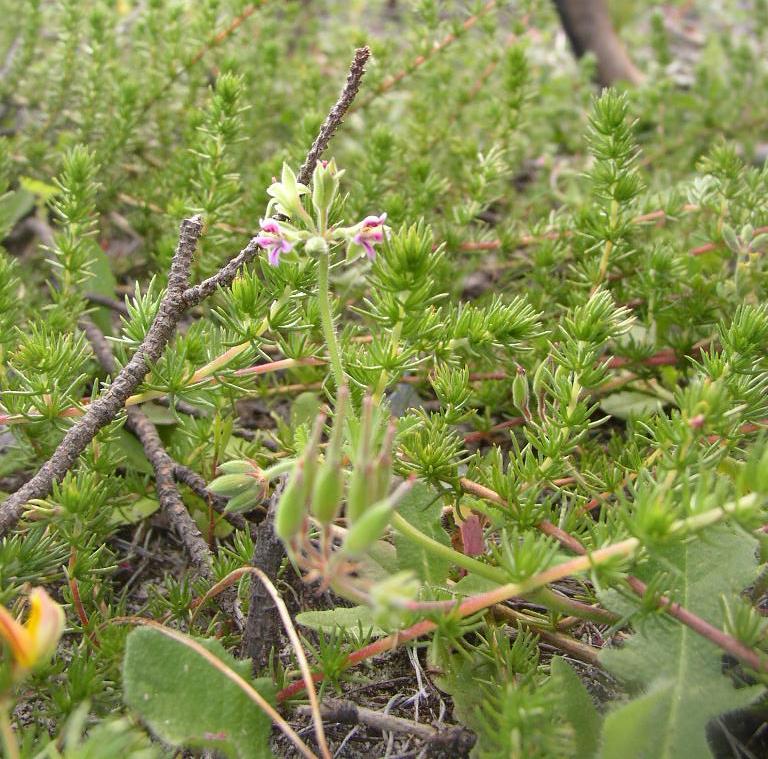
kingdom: Plantae
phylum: Tracheophyta
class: Magnoliopsida
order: Geraniales
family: Geraniaceae
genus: Pelargonium
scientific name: Pelargonium althaeoides
